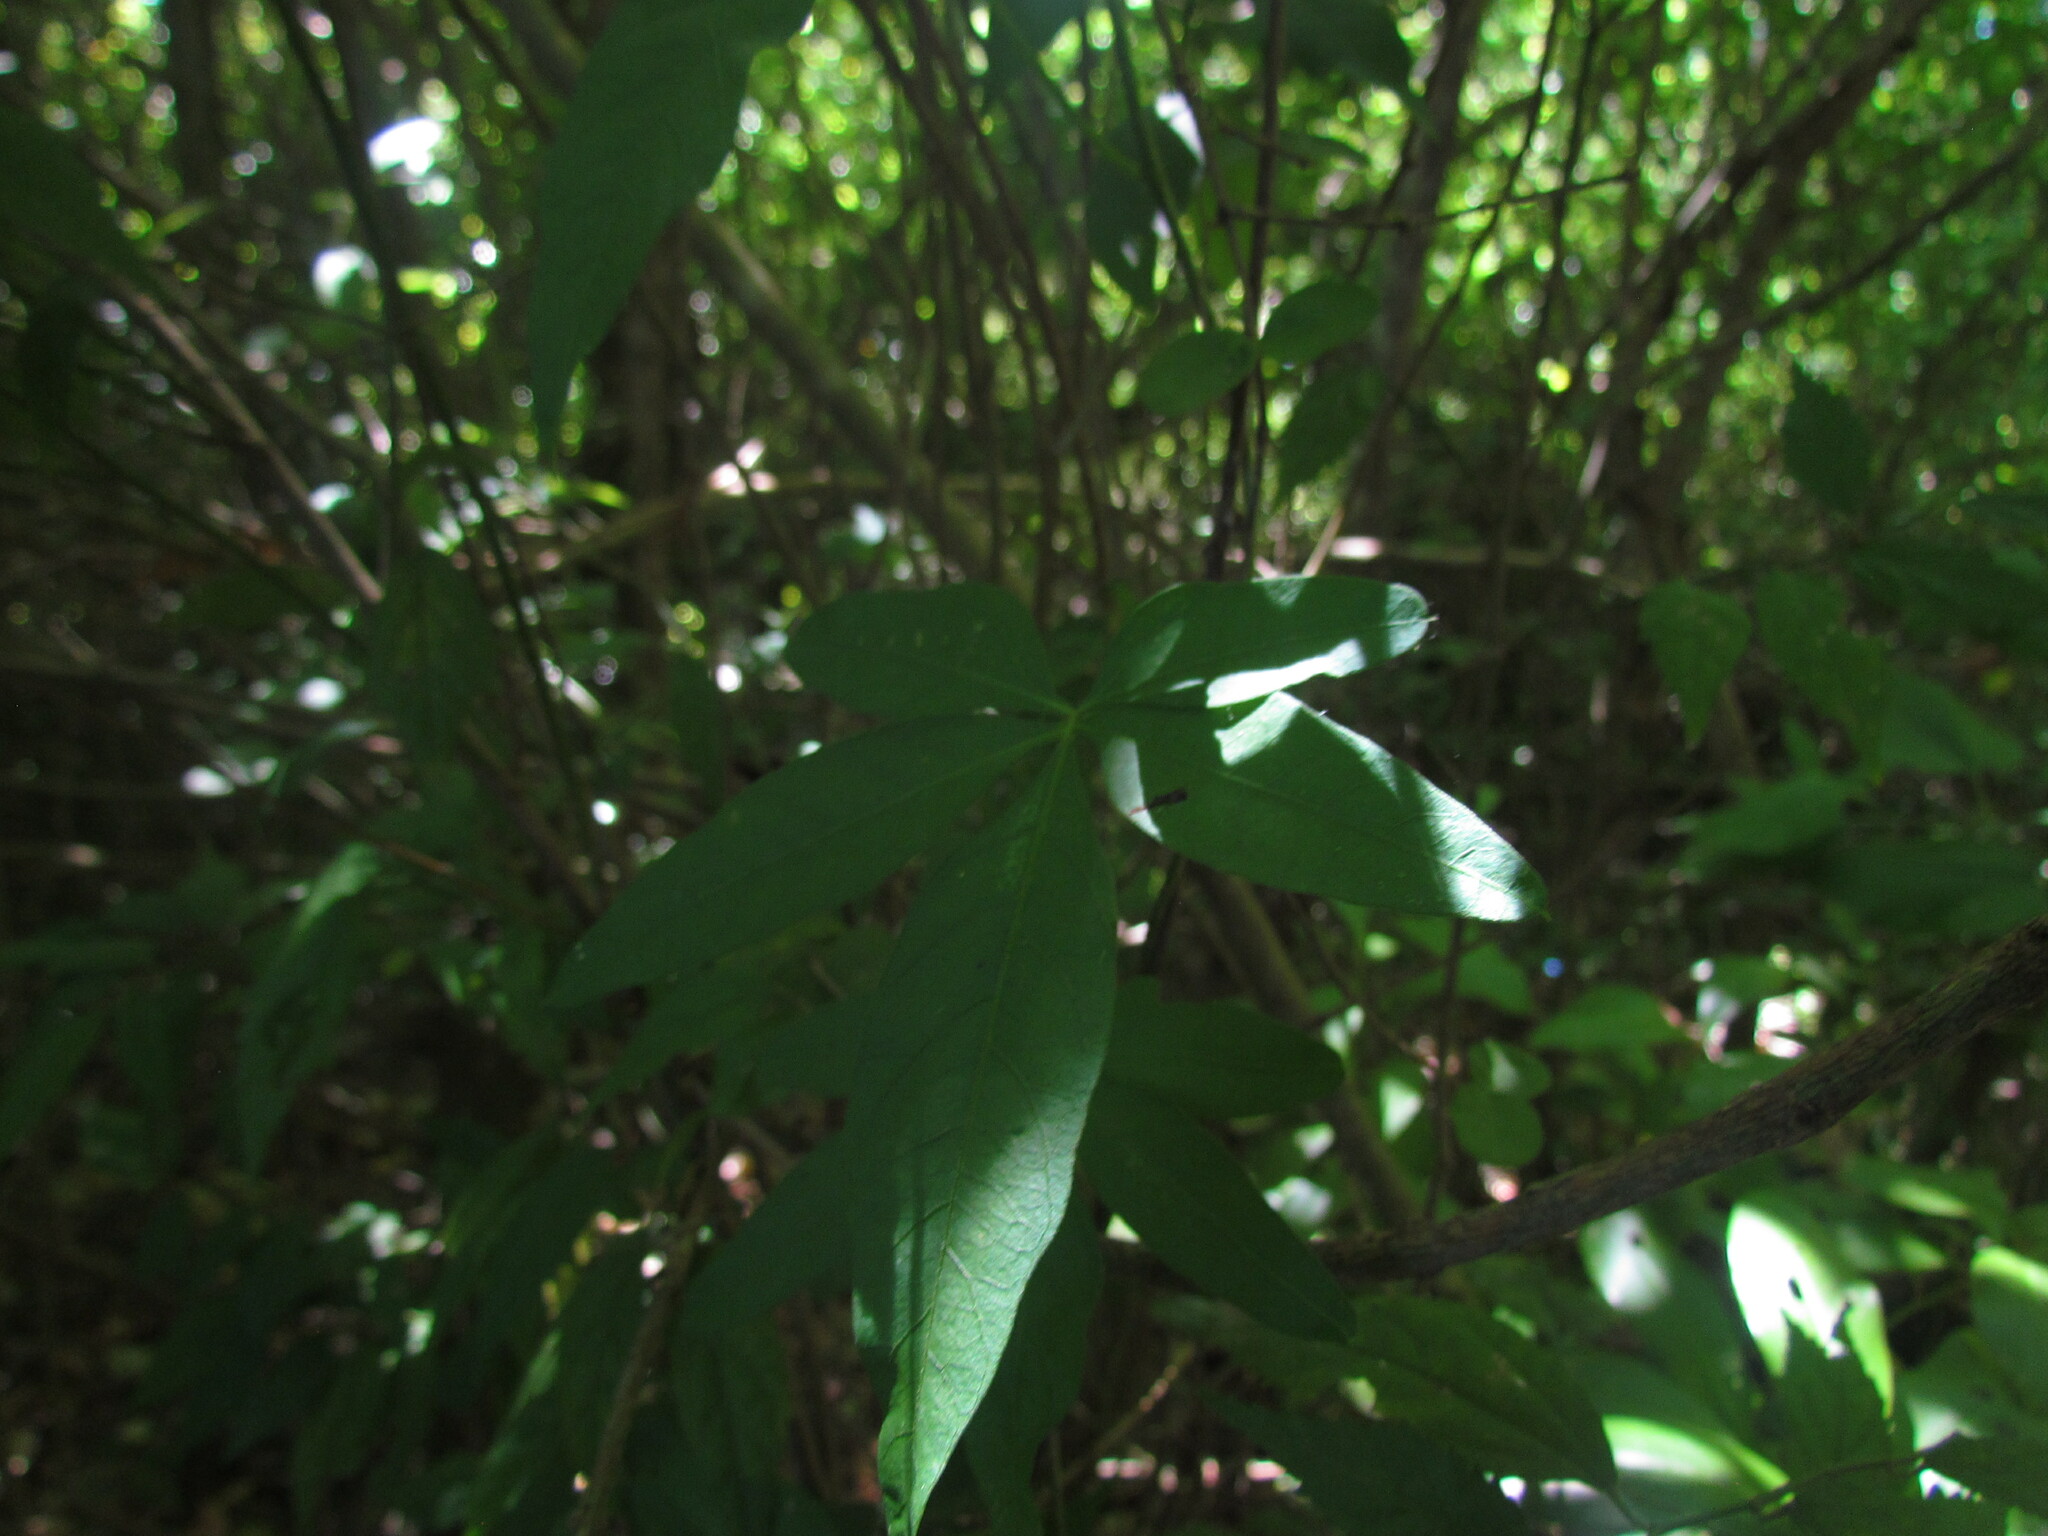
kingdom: Plantae
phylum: Tracheophyta
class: Magnoliopsida
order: Solanales
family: Convolvulaceae
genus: Ipomoea
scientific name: Ipomoea cairica
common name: Mile a minute vine
